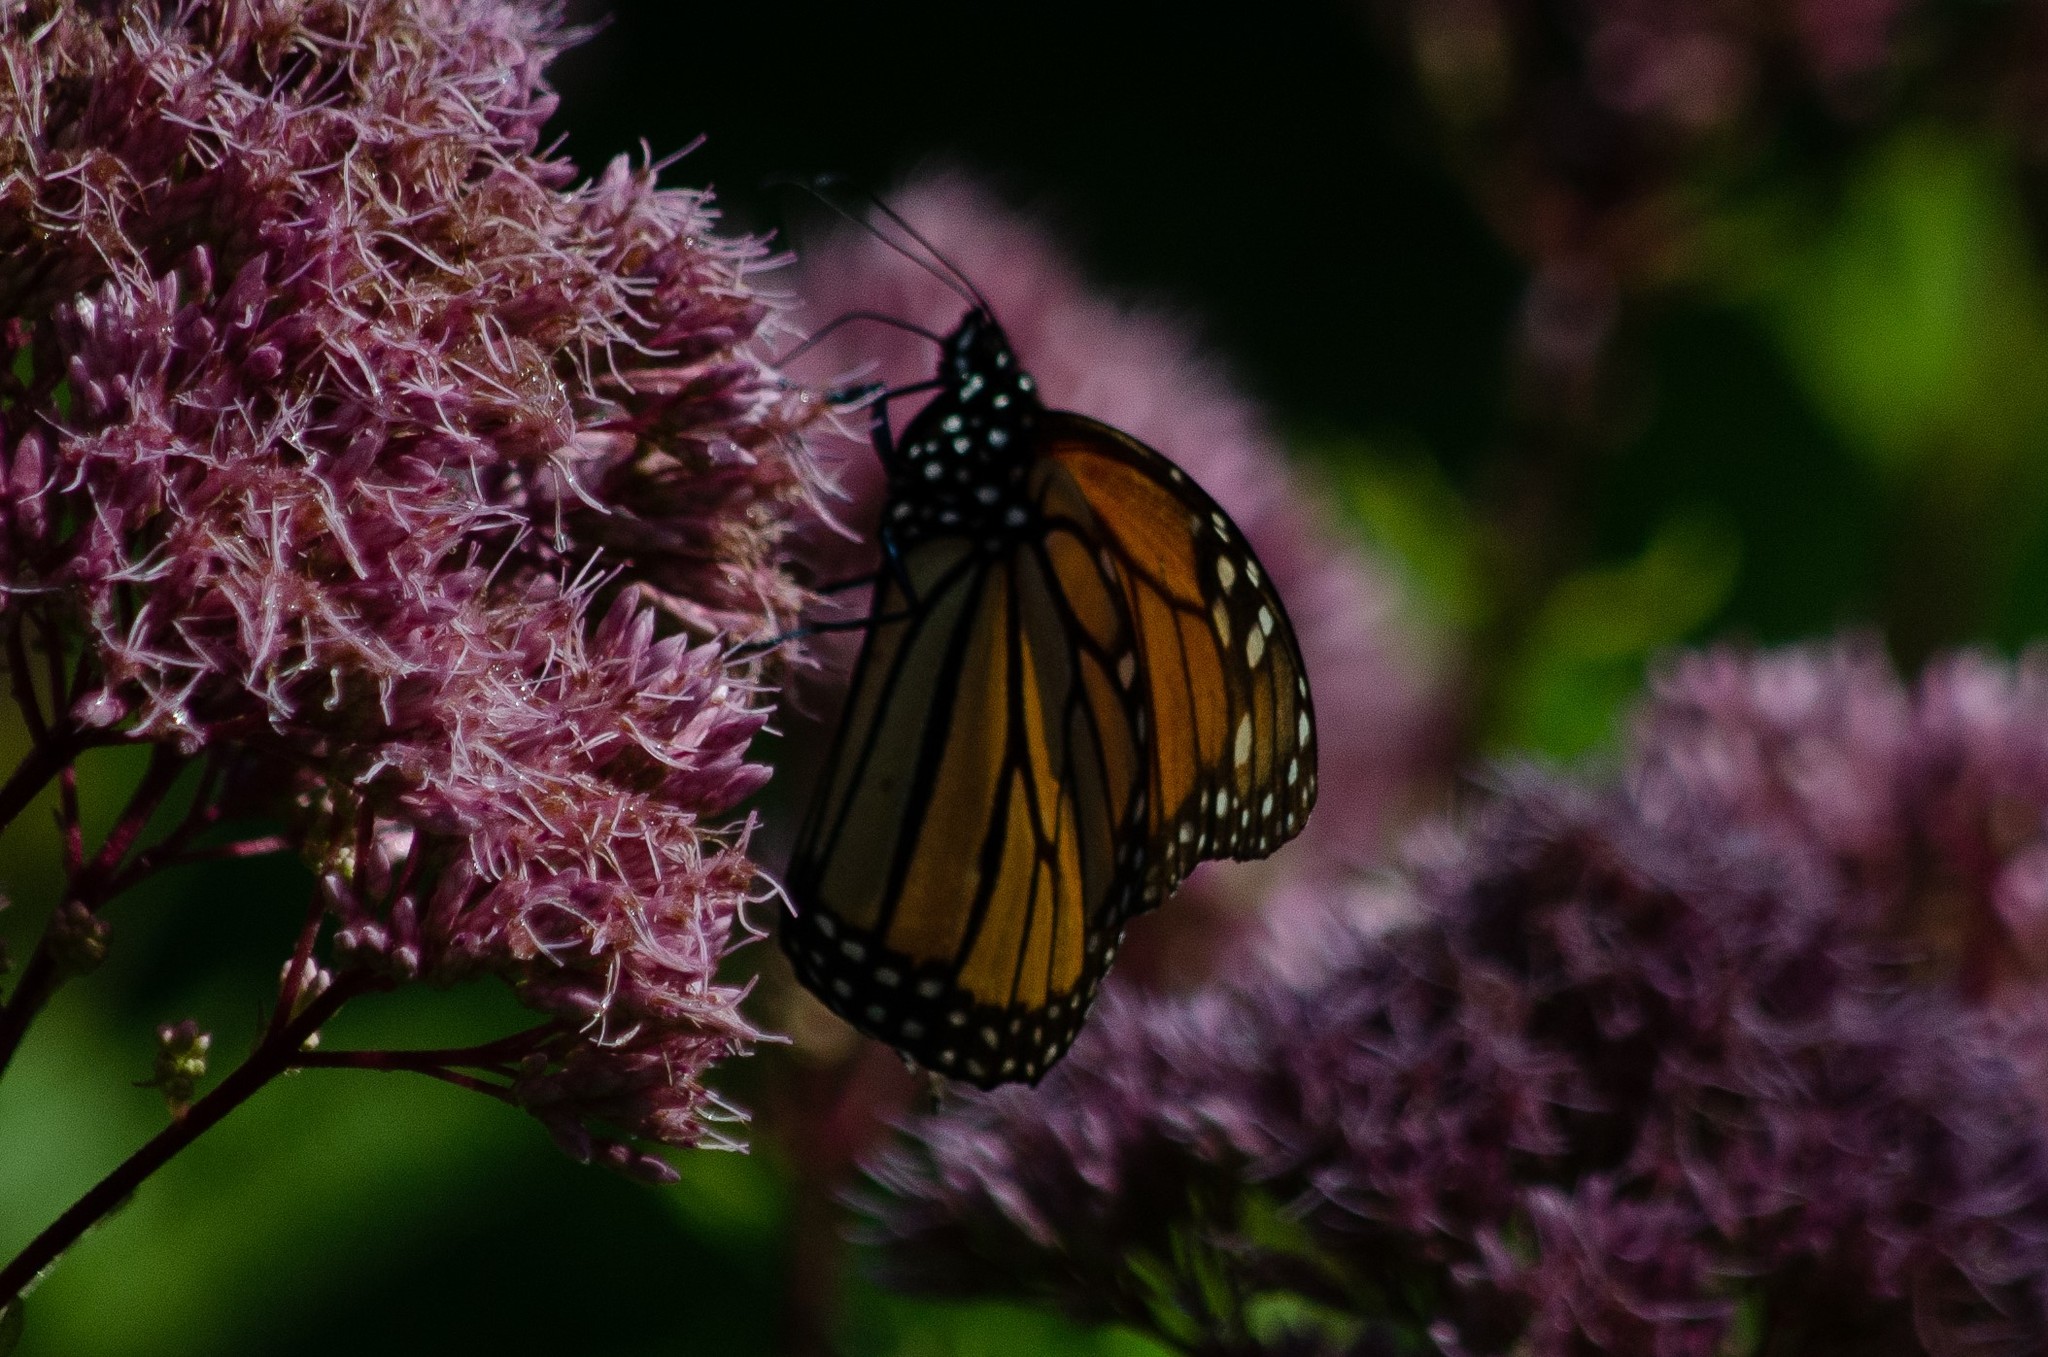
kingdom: Animalia
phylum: Arthropoda
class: Insecta
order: Lepidoptera
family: Nymphalidae
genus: Danaus
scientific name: Danaus plexippus
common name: Monarch
